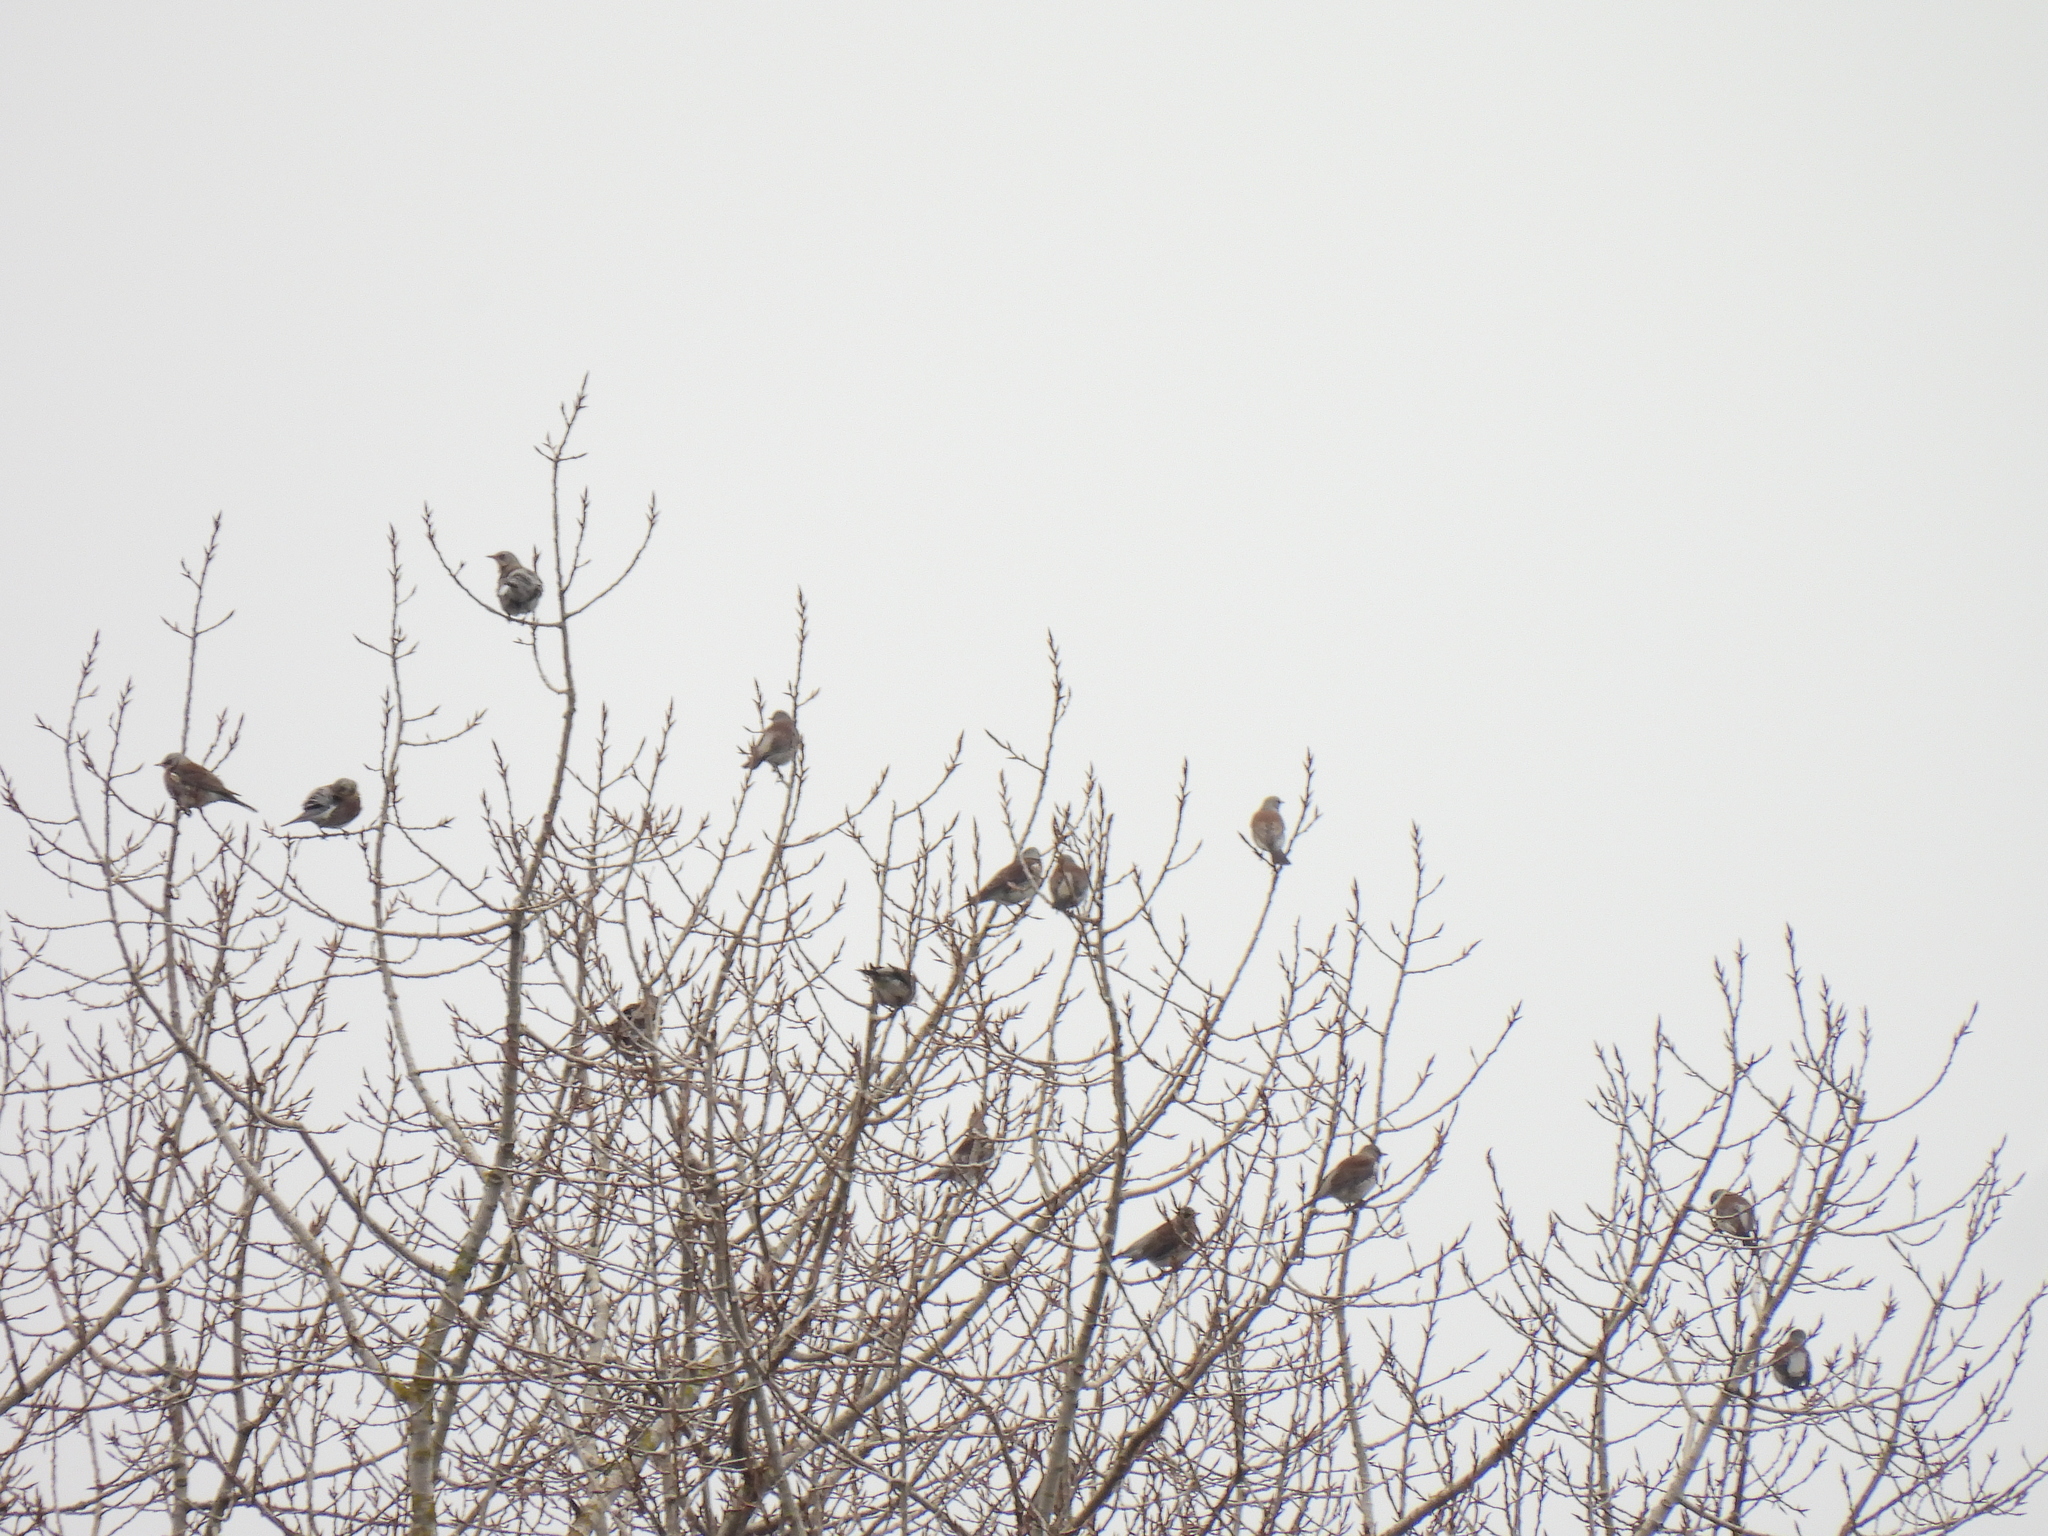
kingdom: Animalia
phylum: Chordata
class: Aves
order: Passeriformes
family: Turdidae
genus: Turdus
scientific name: Turdus pilaris
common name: Fieldfare
